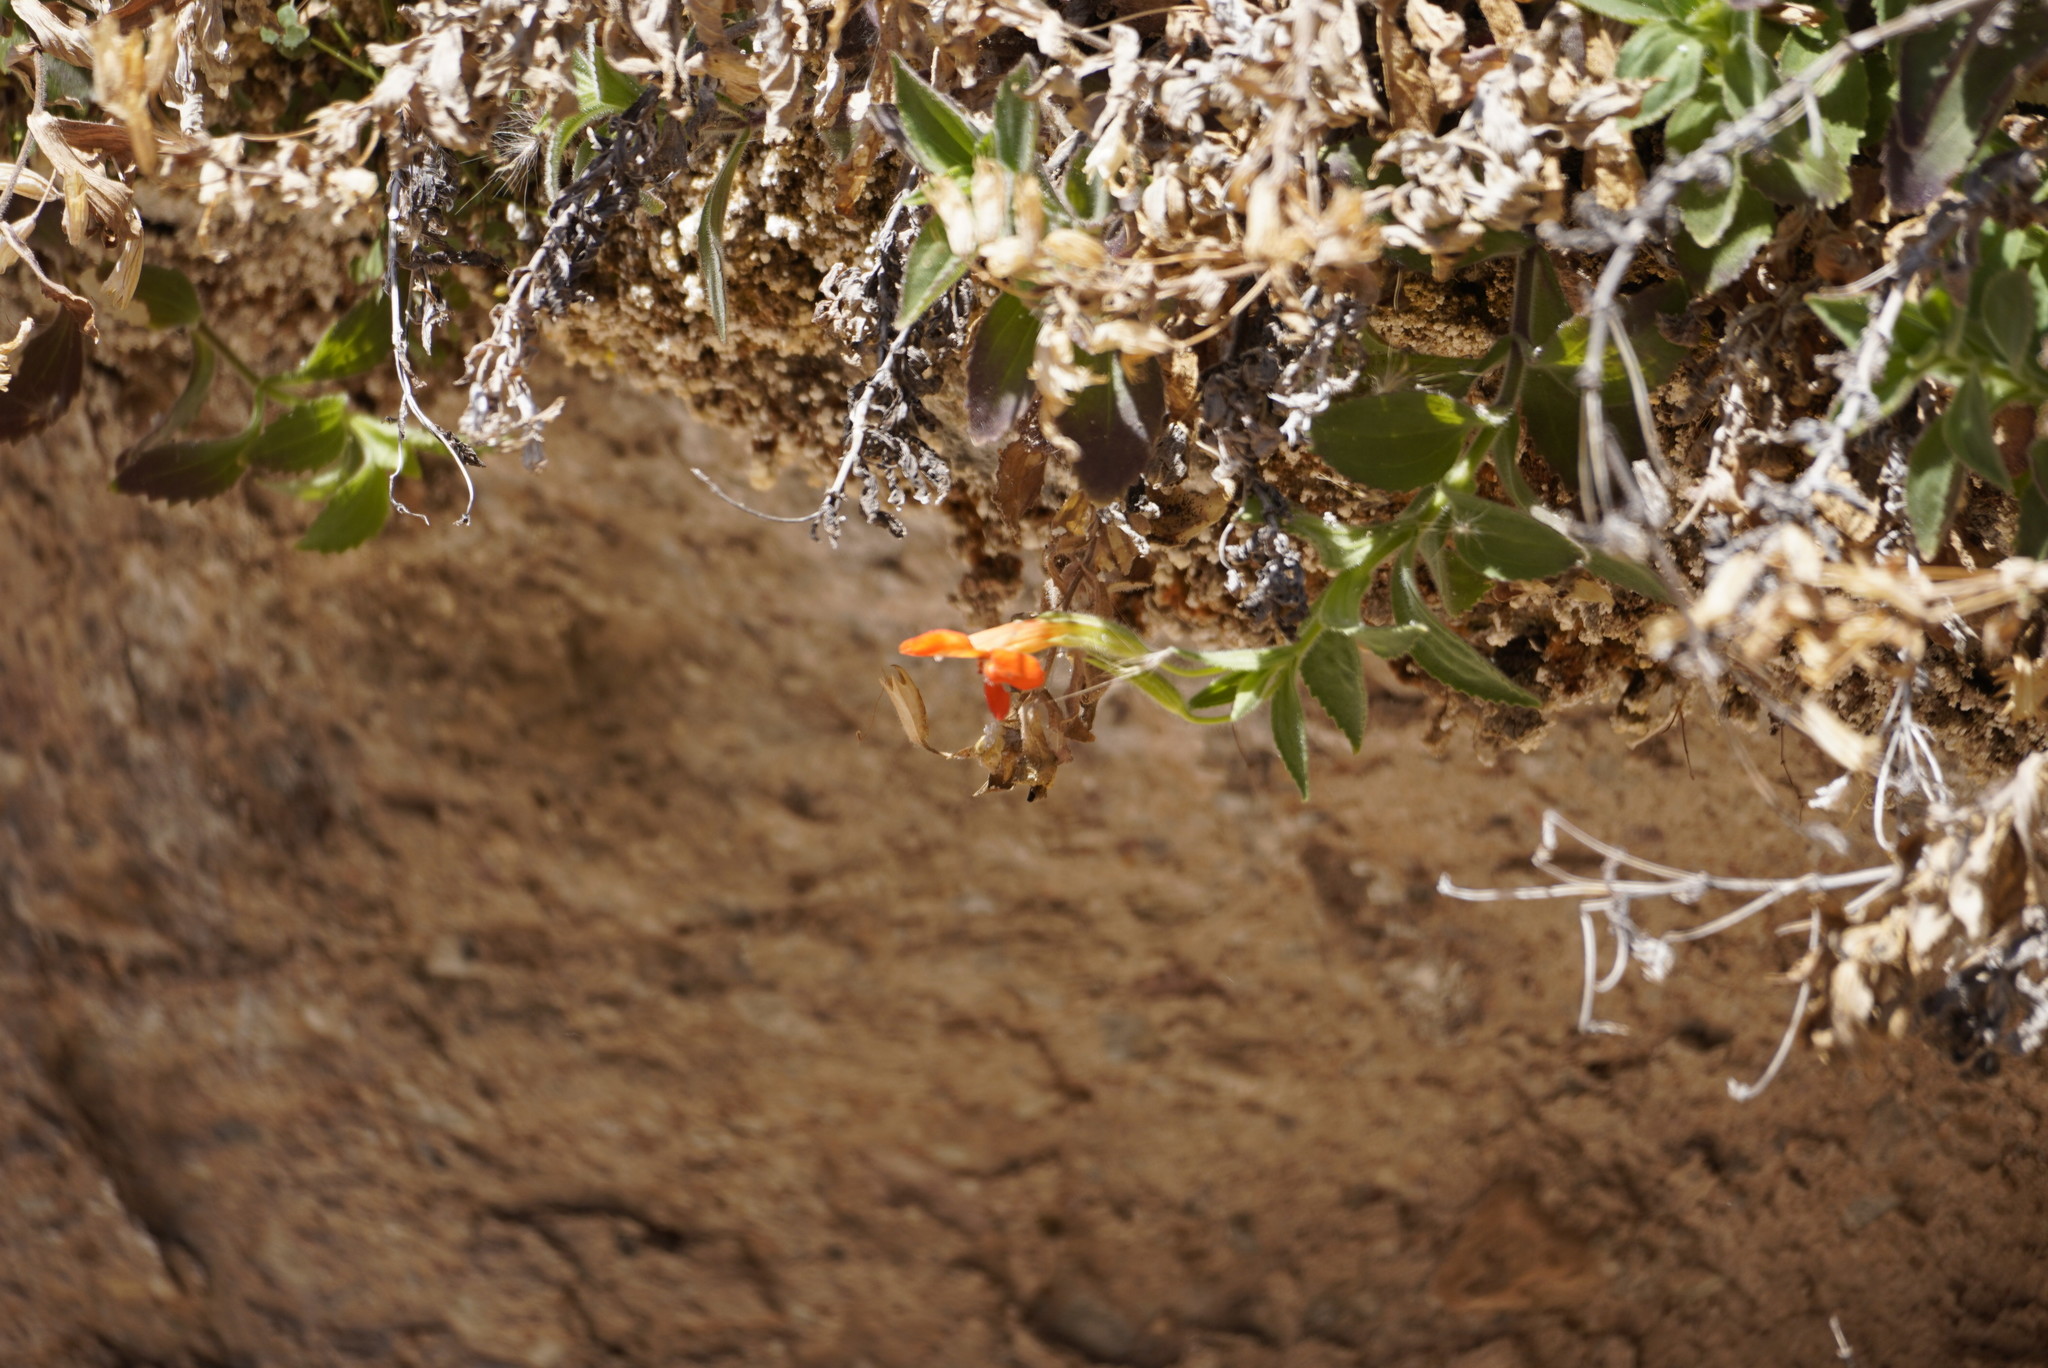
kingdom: Plantae
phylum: Tracheophyta
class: Magnoliopsida
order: Lamiales
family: Phrymaceae
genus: Erythranthe
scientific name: Erythranthe verbenacea
